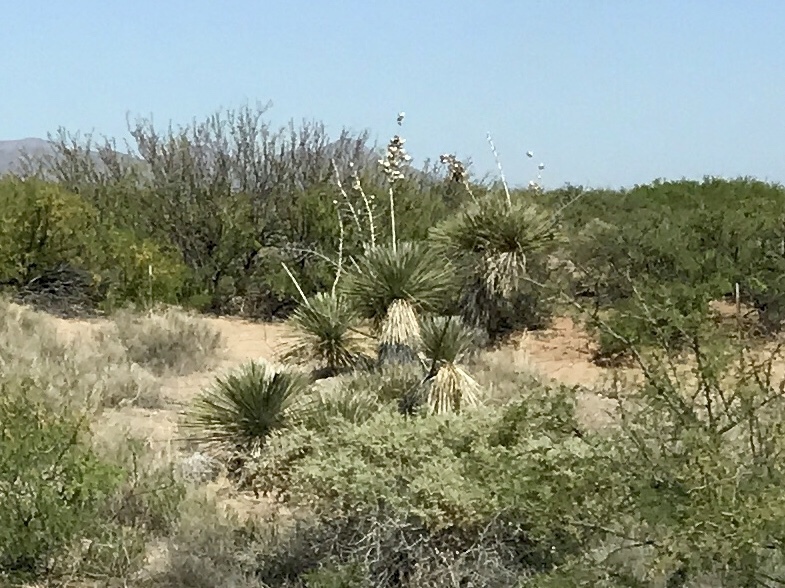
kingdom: Plantae
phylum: Tracheophyta
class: Liliopsida
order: Asparagales
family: Asparagaceae
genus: Yucca
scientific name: Yucca elata
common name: Palmella
